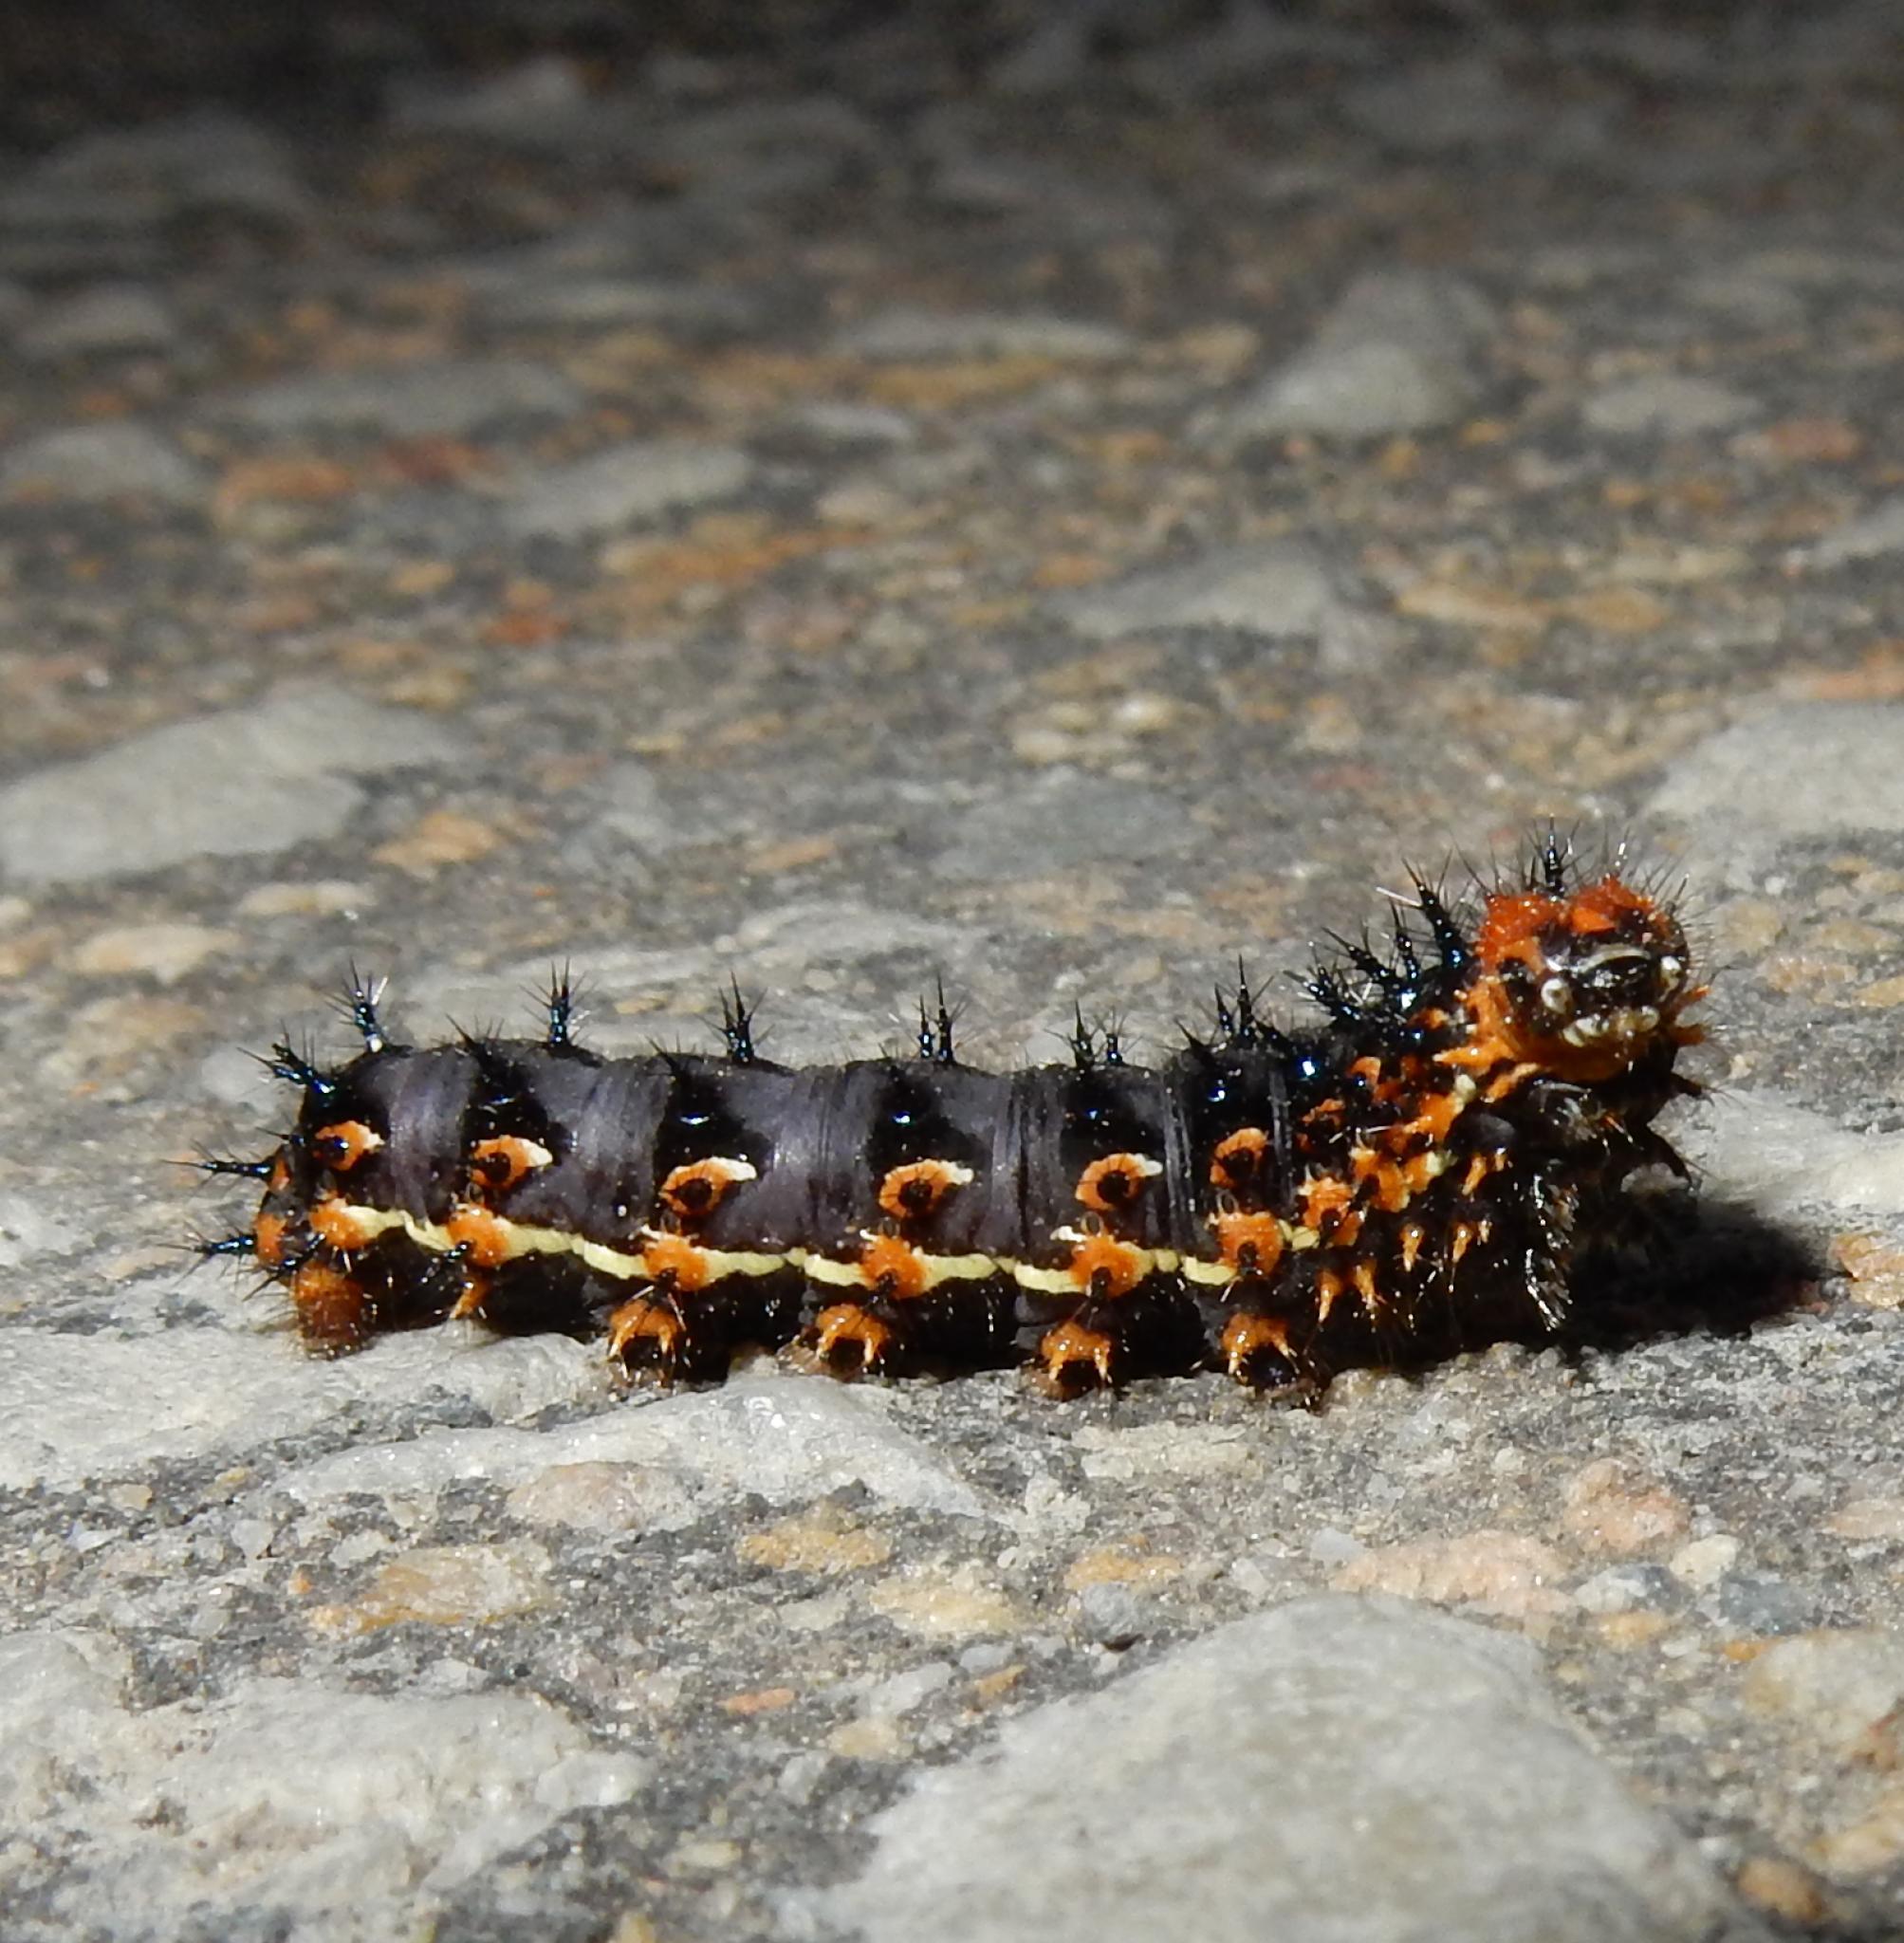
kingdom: Animalia
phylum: Arthropoda
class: Insecta
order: Lepidoptera
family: Nymphalidae
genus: Junonia
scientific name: Junonia orithya
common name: Blue pansy
